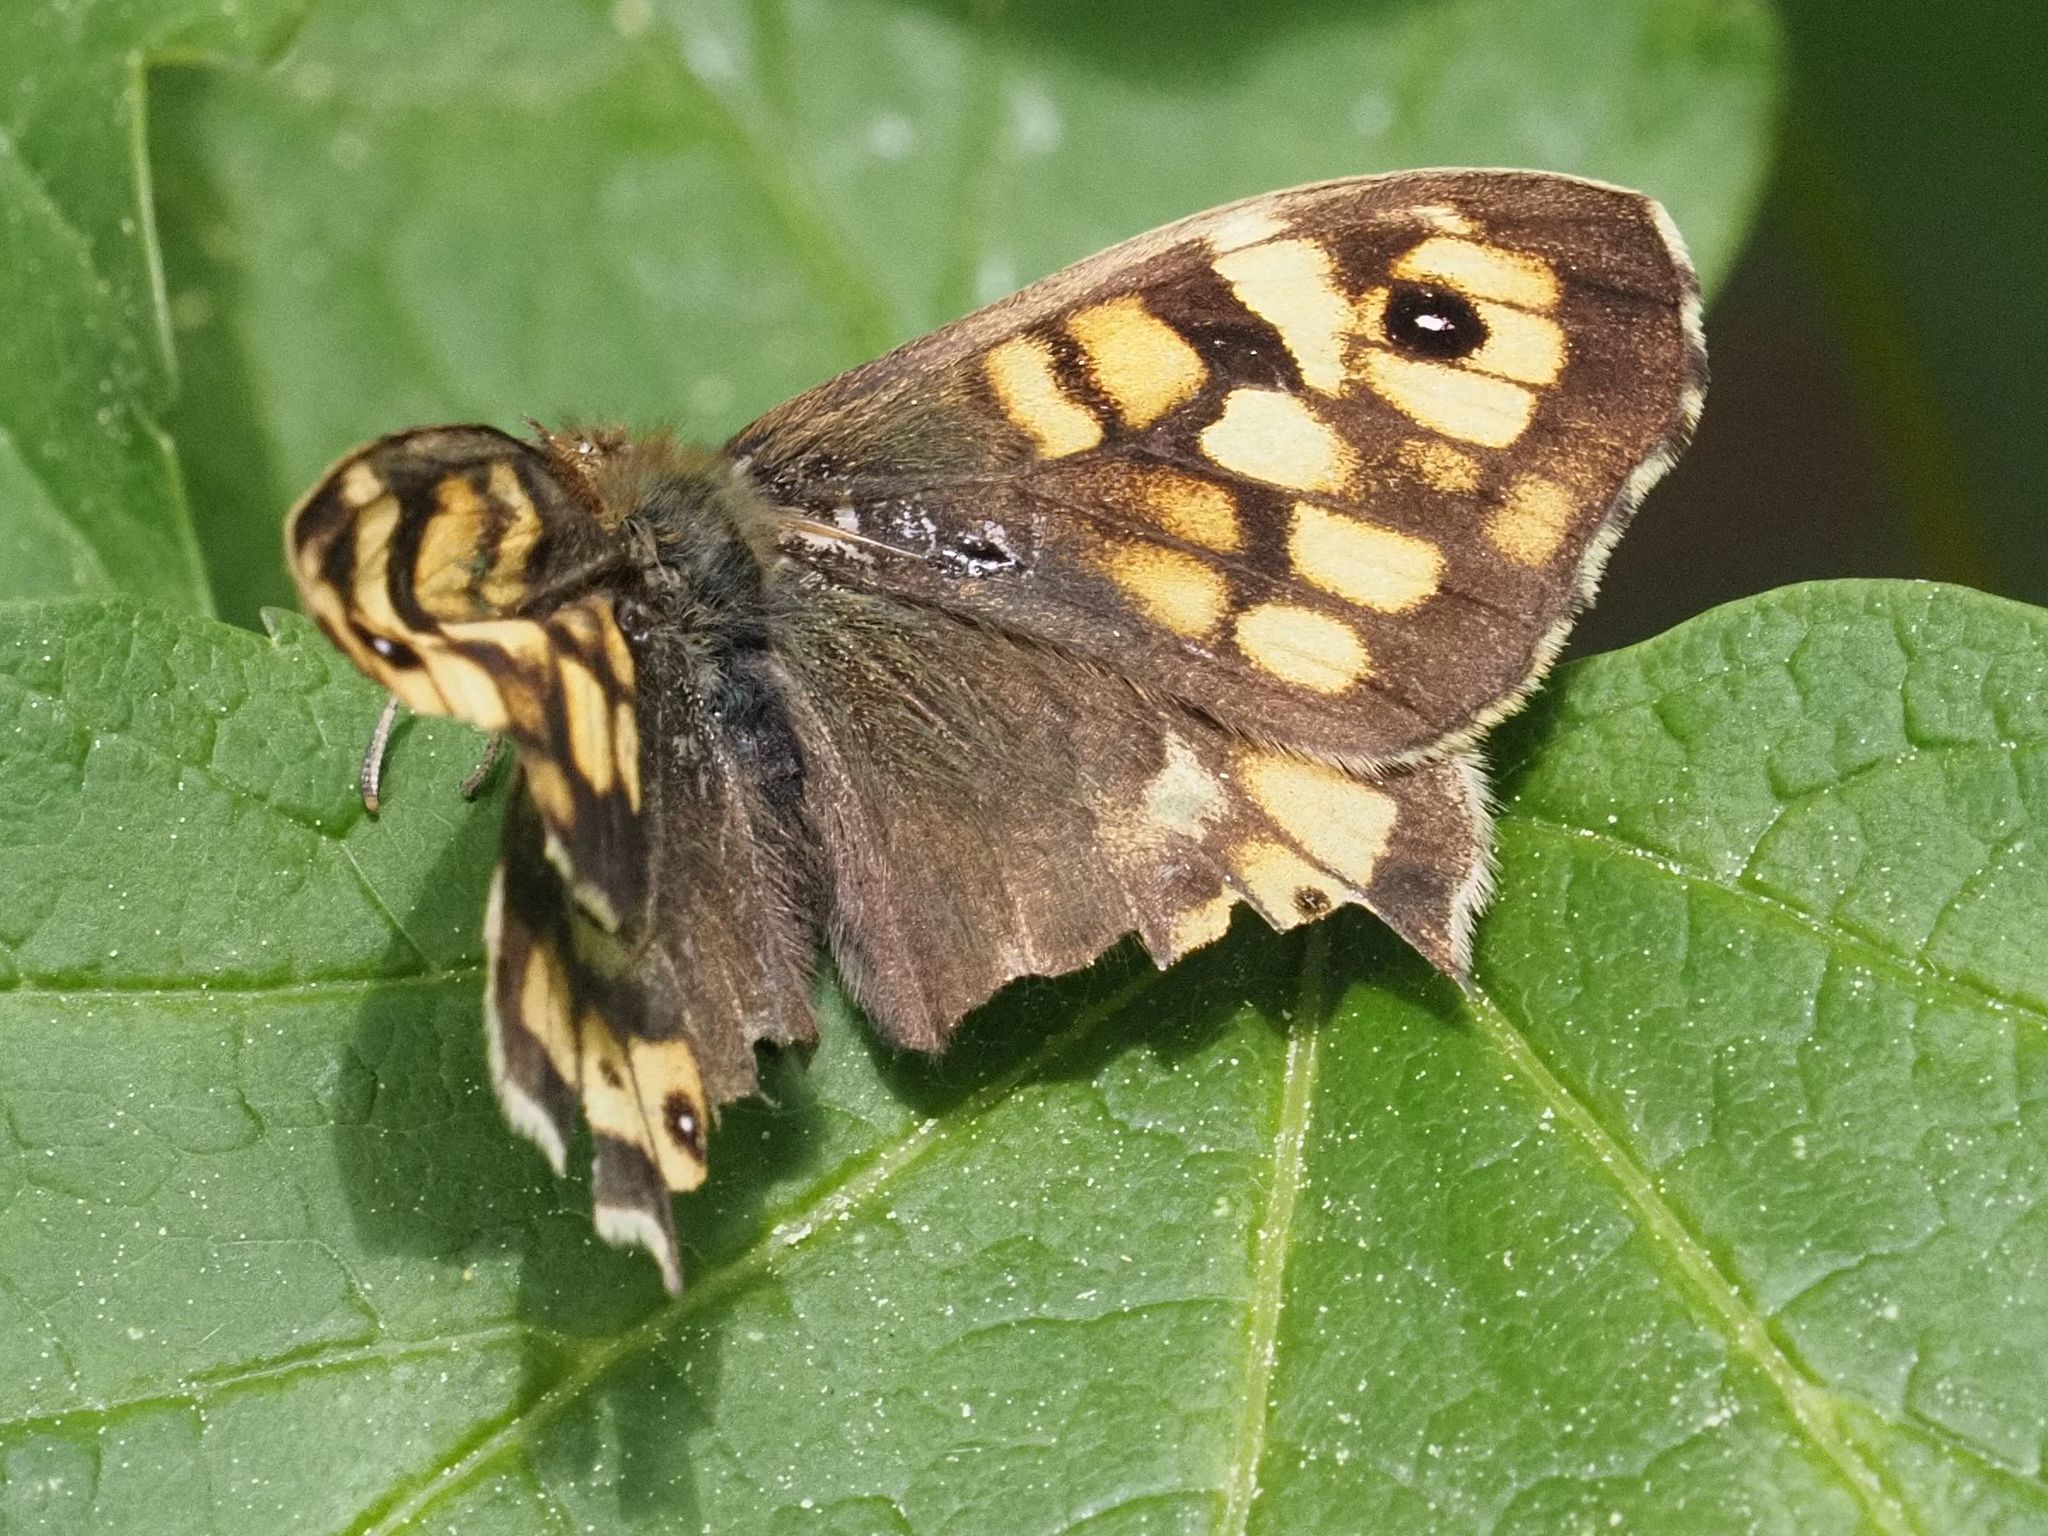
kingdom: Animalia
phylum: Arthropoda
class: Insecta
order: Lepidoptera
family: Nymphalidae
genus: Pararge
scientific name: Pararge aegeria
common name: Speckled wood
